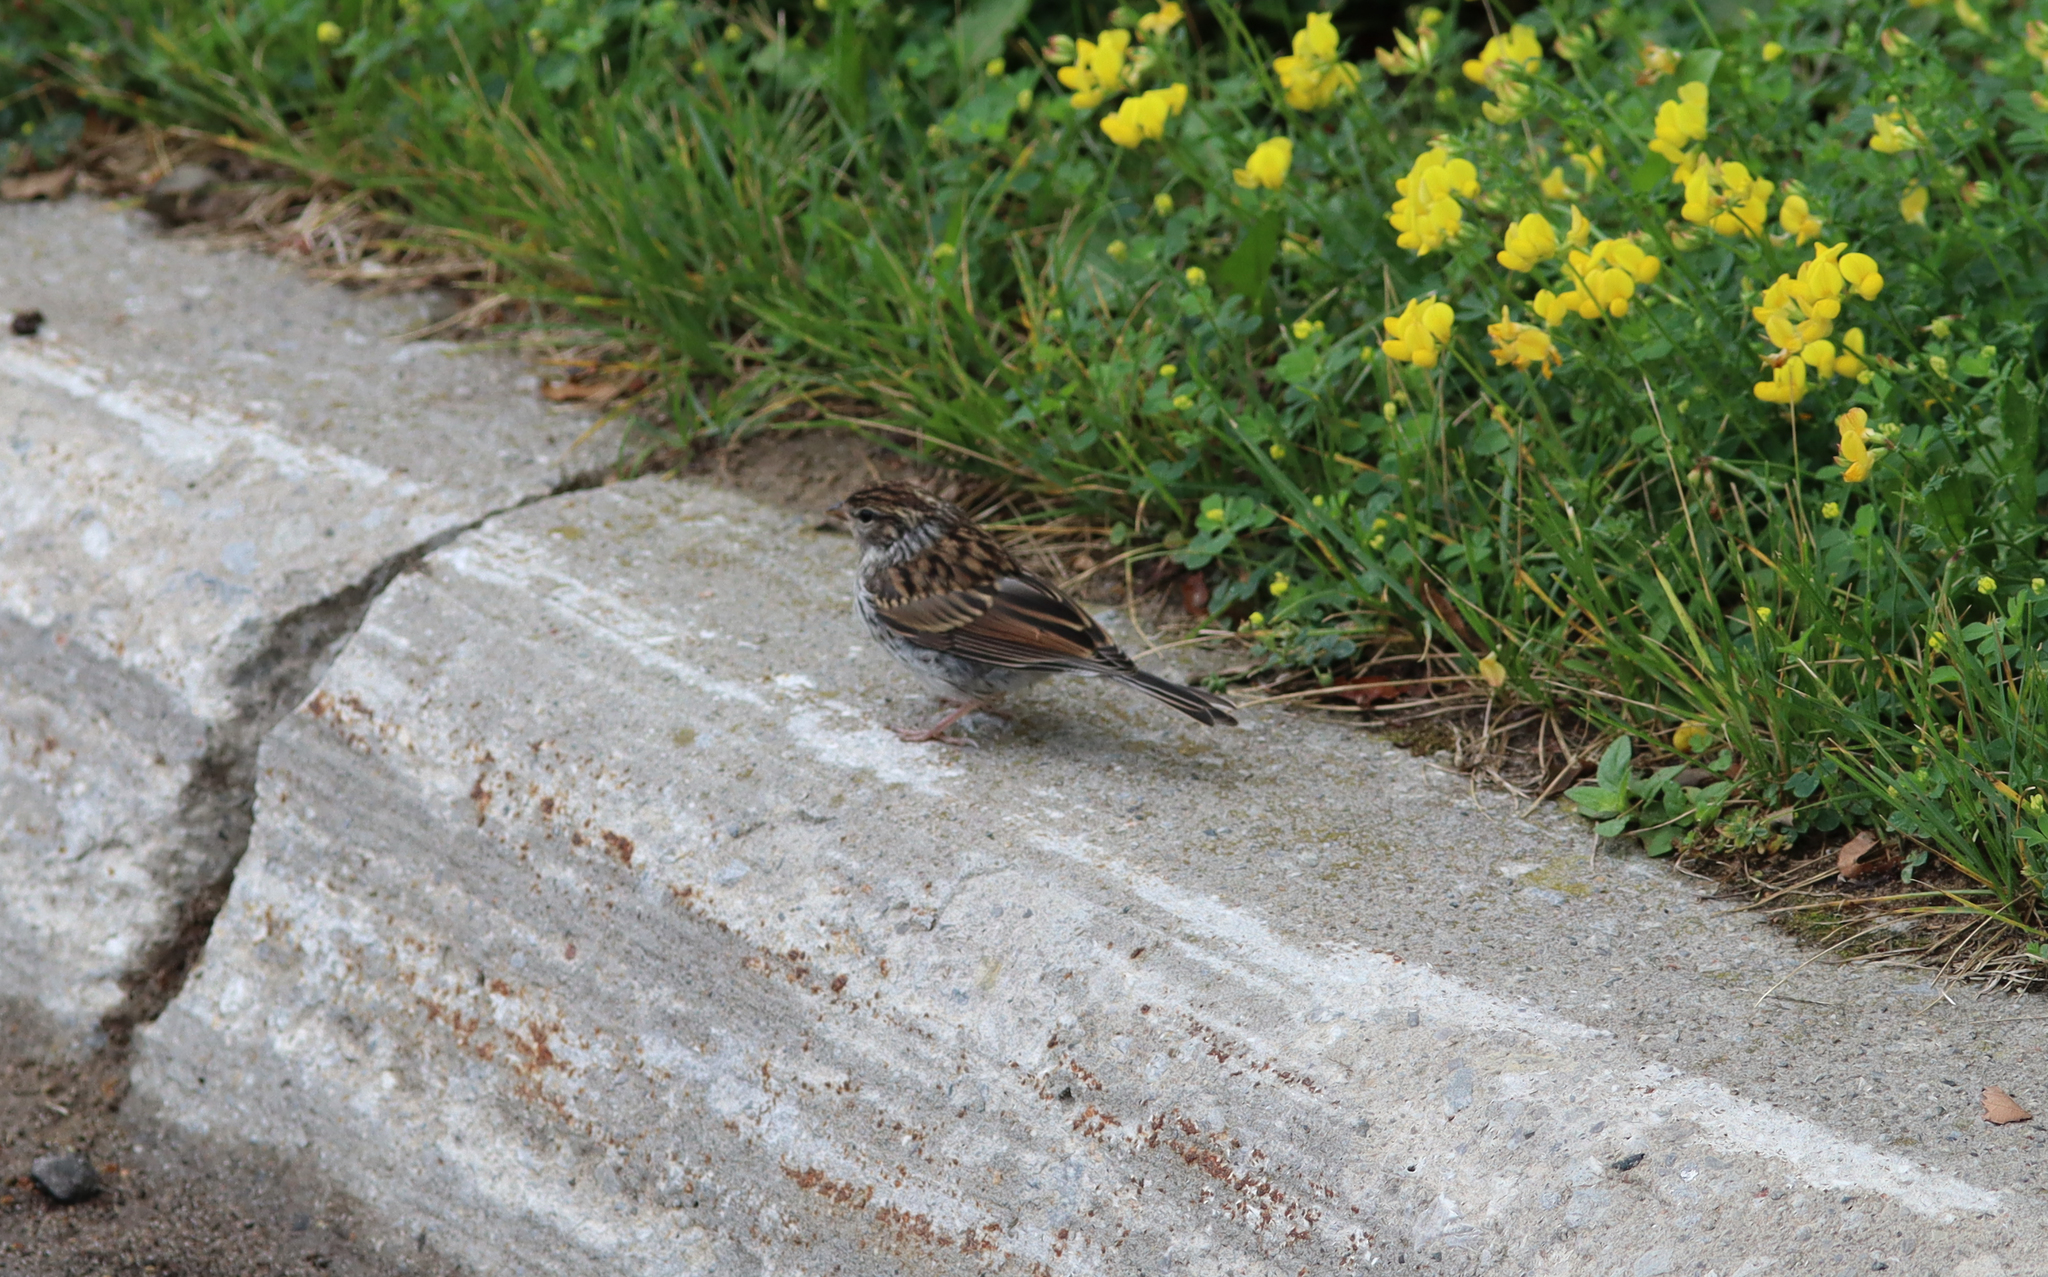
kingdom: Animalia
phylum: Chordata
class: Aves
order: Passeriformes
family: Passerellidae
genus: Spizella
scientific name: Spizella passerina
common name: Chipping sparrow
